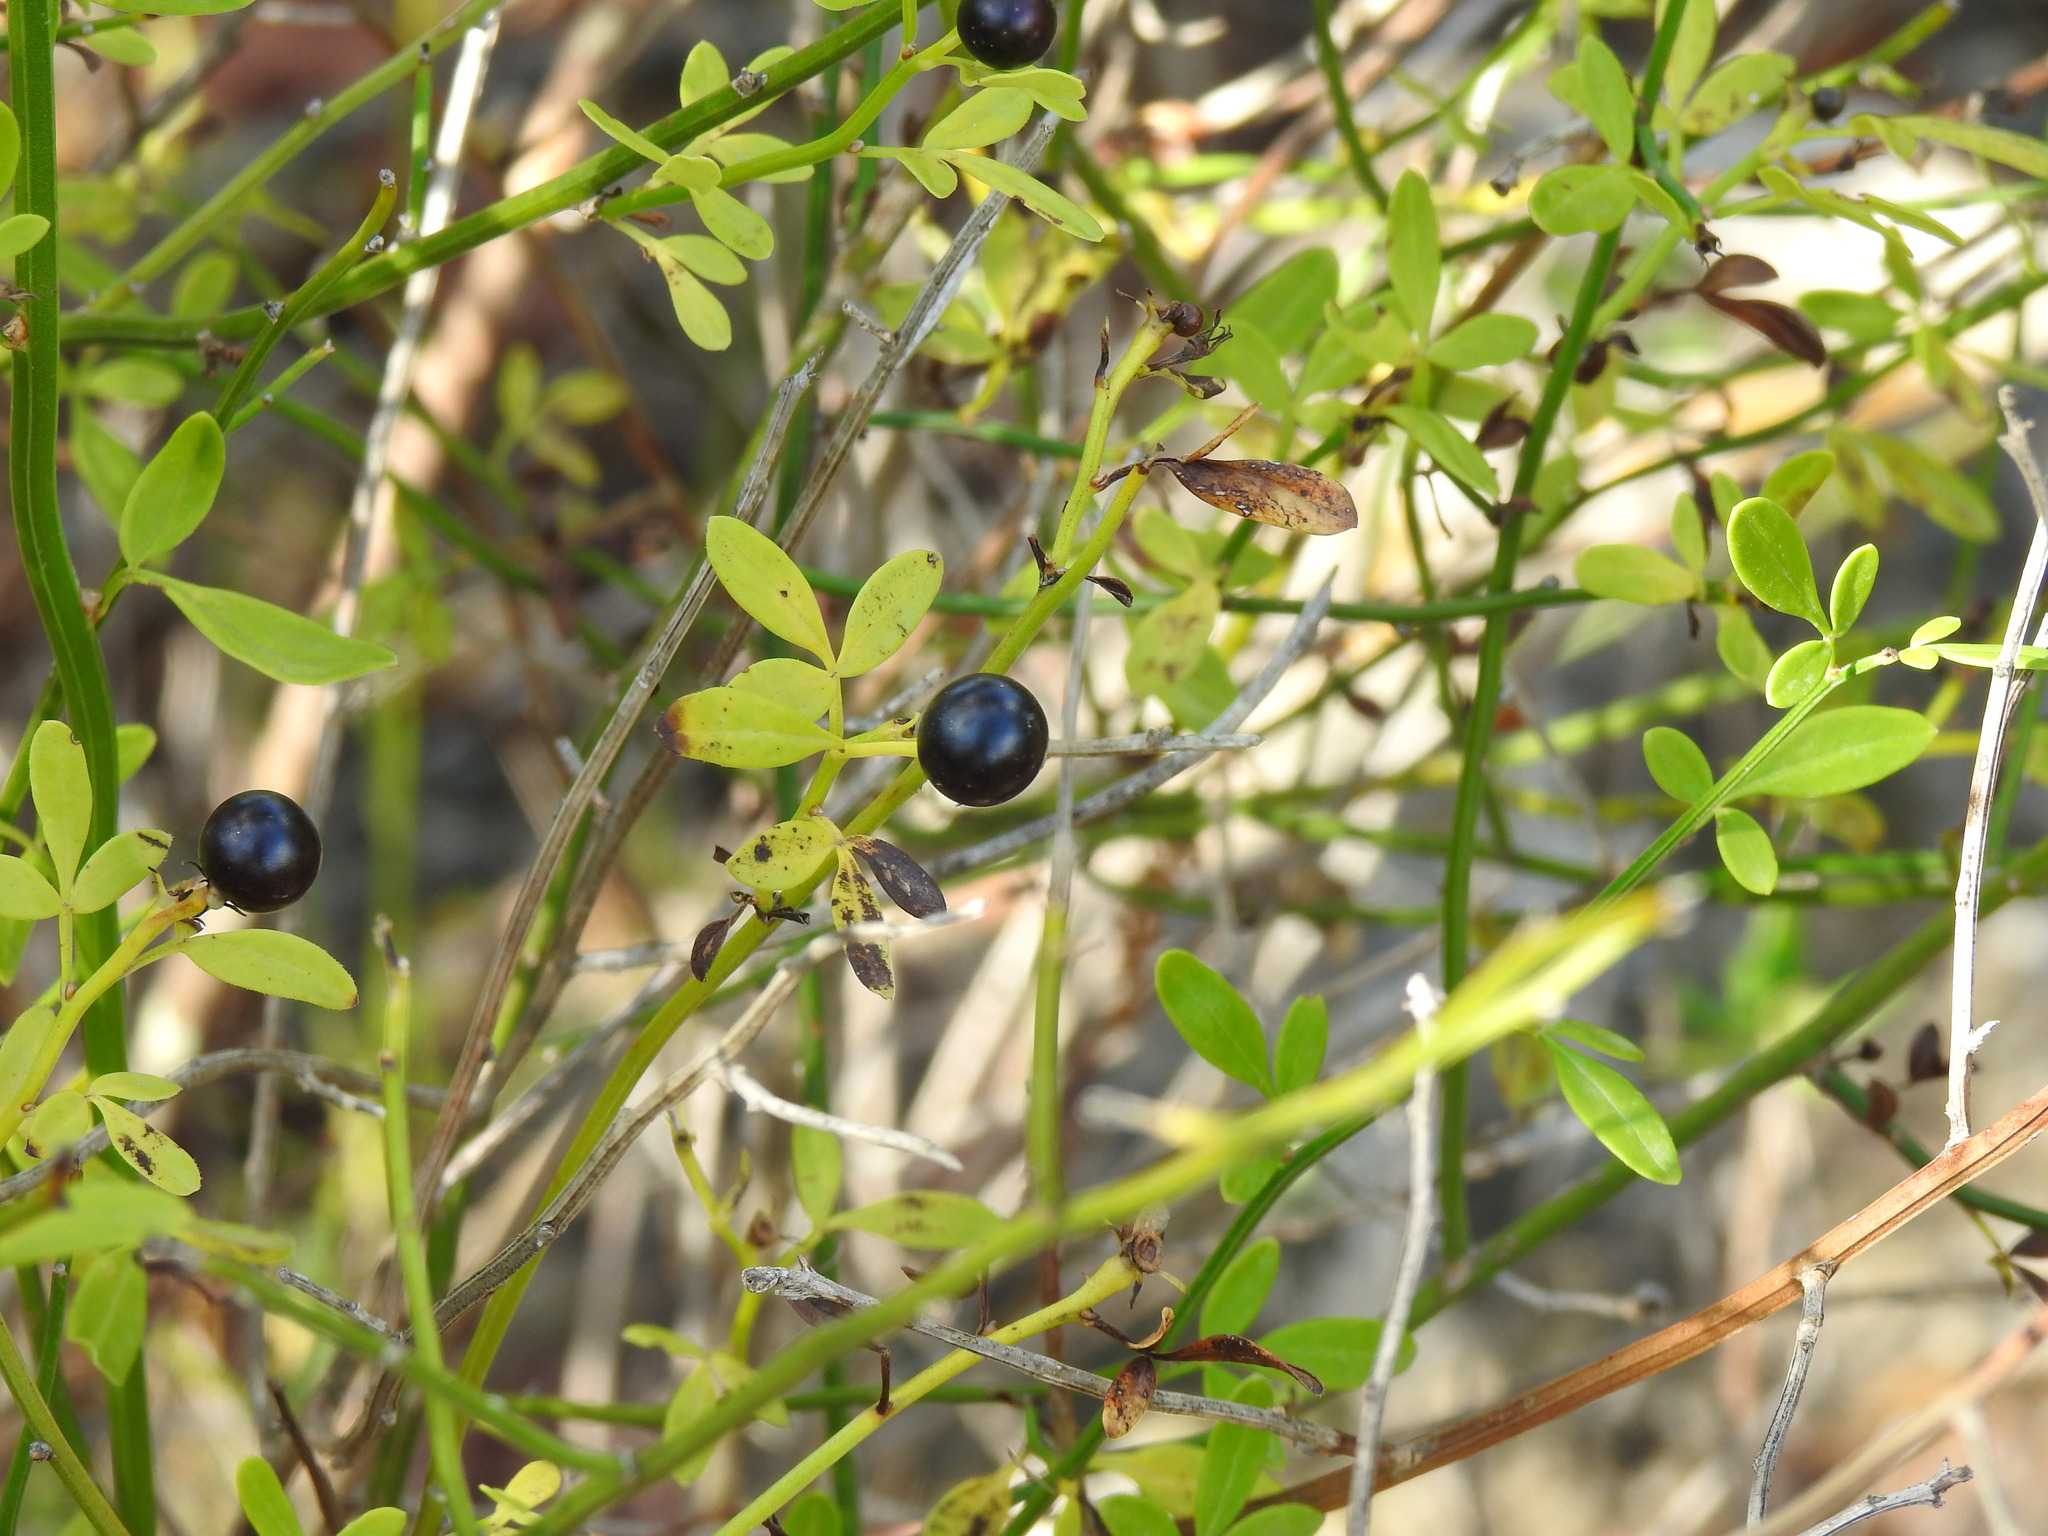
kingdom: Plantae
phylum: Tracheophyta
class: Magnoliopsida
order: Lamiales
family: Oleaceae
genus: Chrysojasminum
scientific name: Chrysojasminum fruticans
